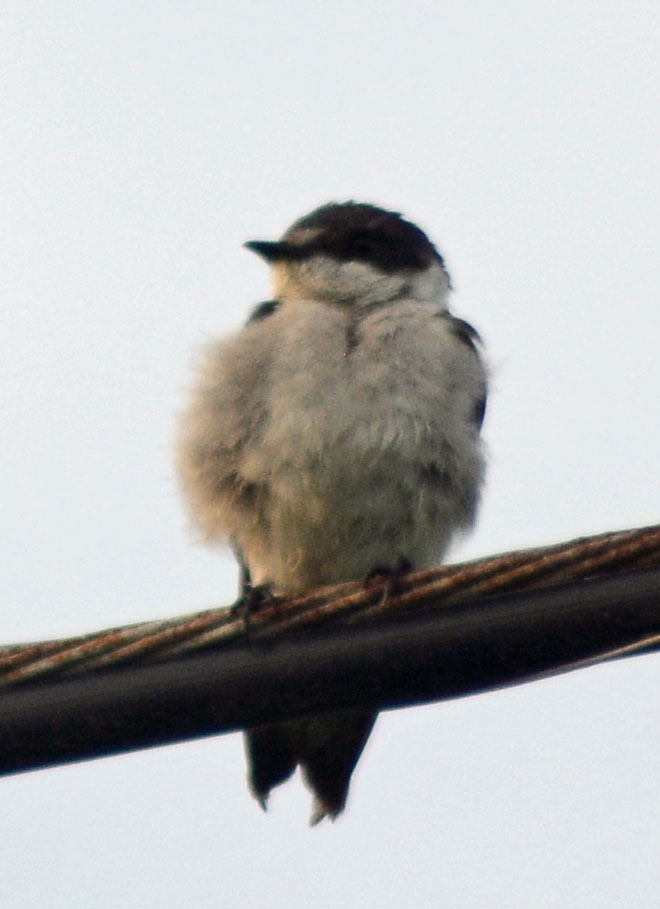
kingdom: Animalia
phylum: Chordata
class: Aves
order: Passeriformes
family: Hirundinidae
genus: Tachycineta
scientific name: Tachycineta albilinea
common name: Mangrove swallow
